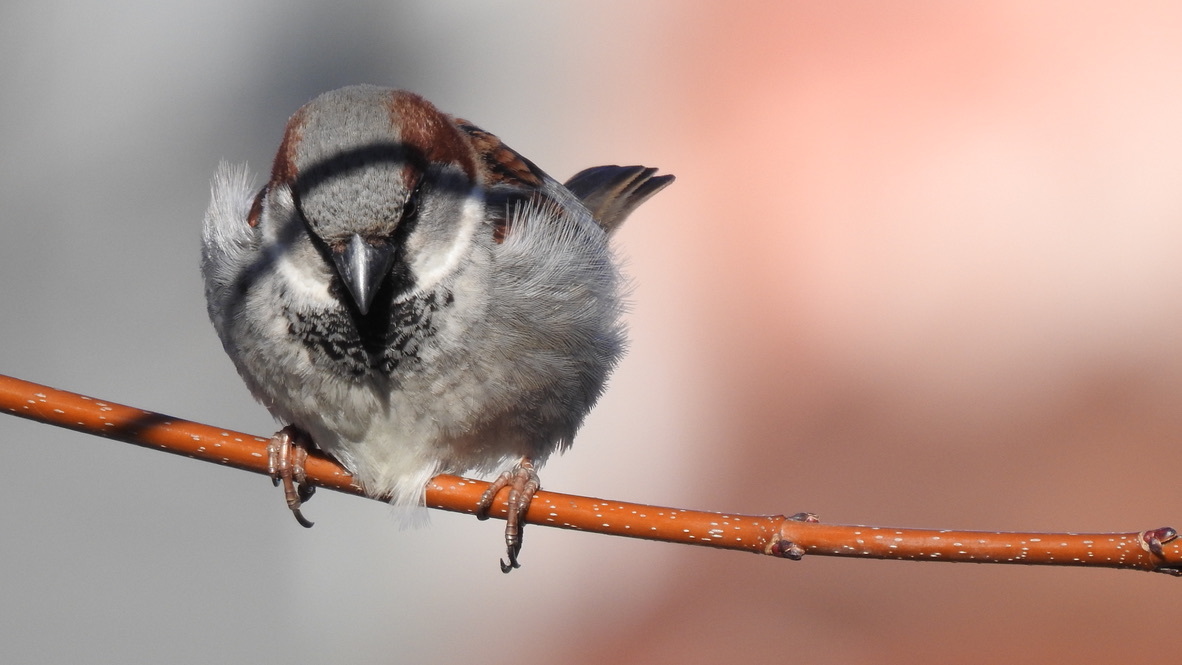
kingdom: Animalia
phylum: Chordata
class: Aves
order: Passeriformes
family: Passeridae
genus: Passer
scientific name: Passer domesticus
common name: House sparrow
